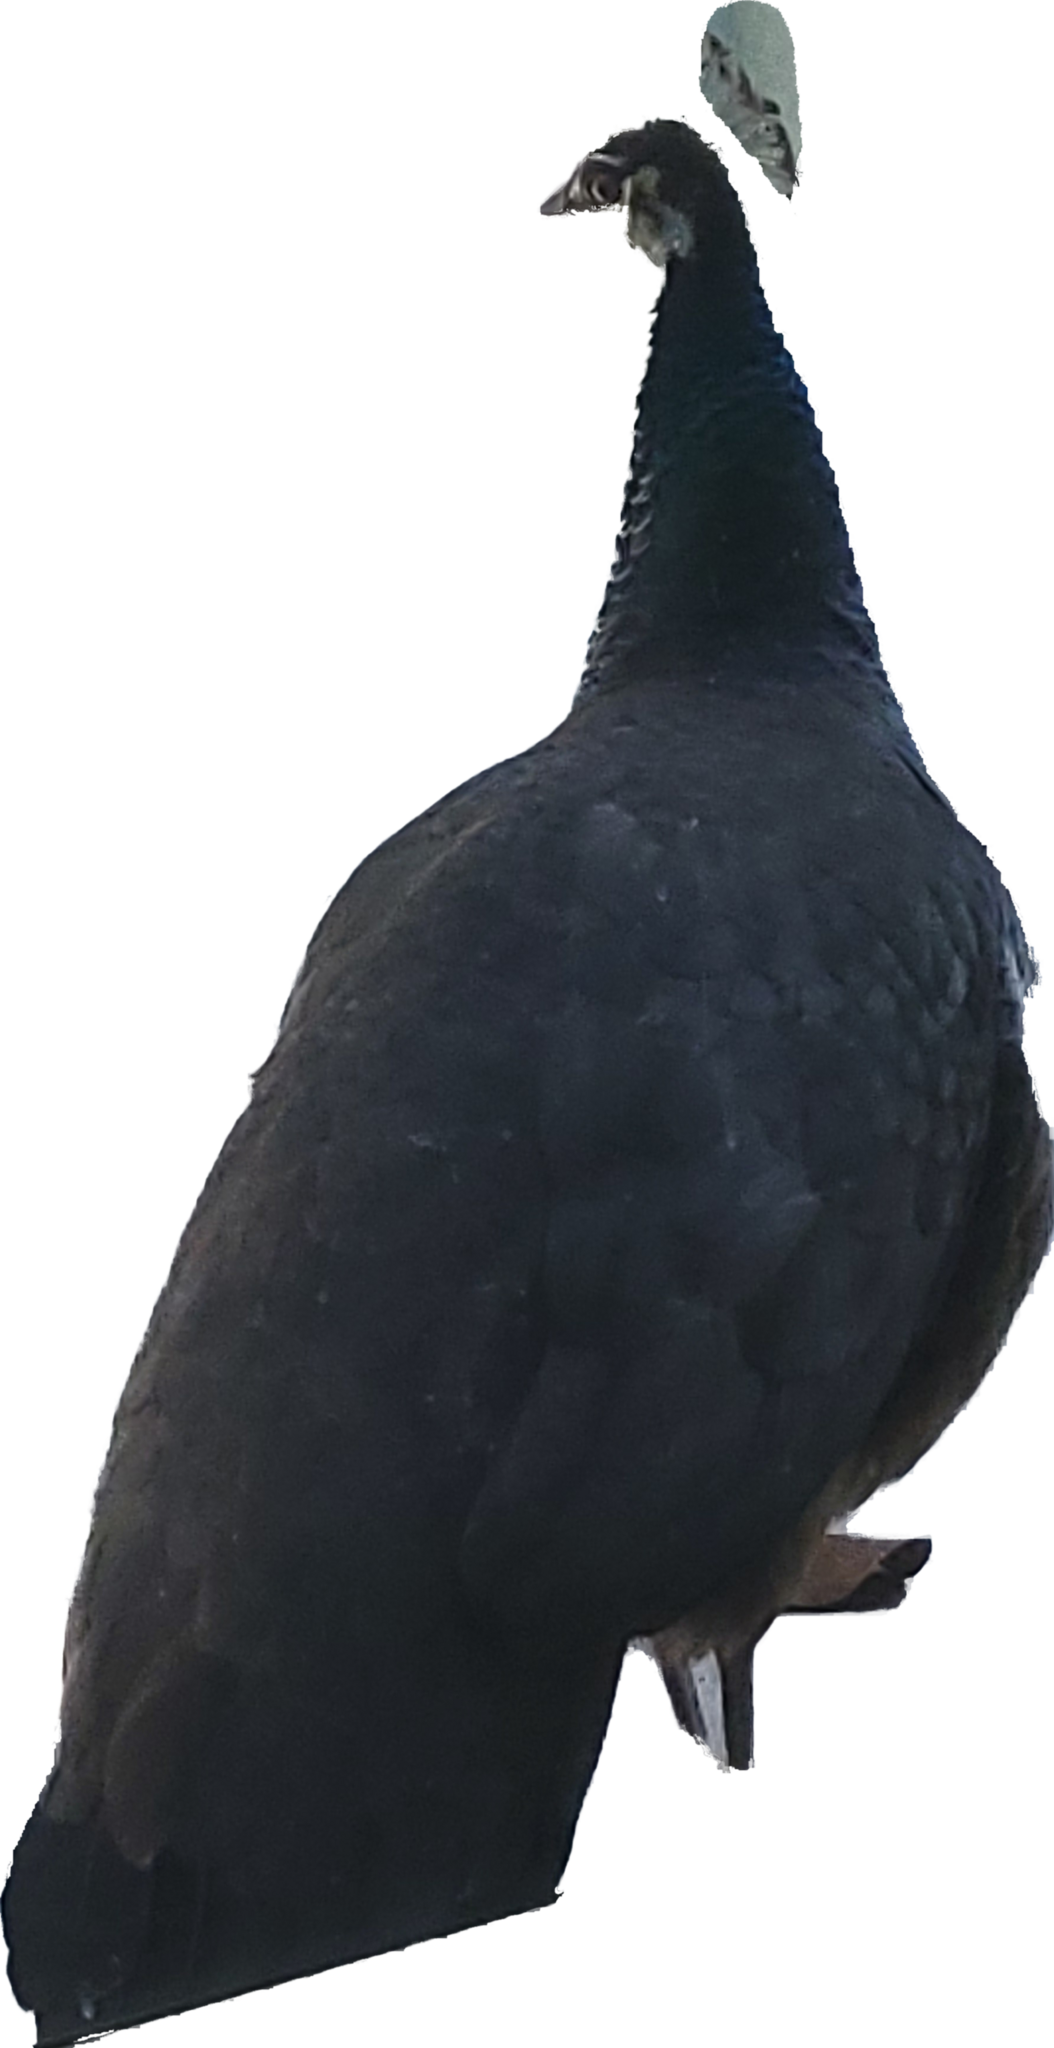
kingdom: Animalia
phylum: Chordata
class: Aves
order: Galliformes
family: Phasianidae
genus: Pavo
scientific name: Pavo cristatus
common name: Indian peafowl
